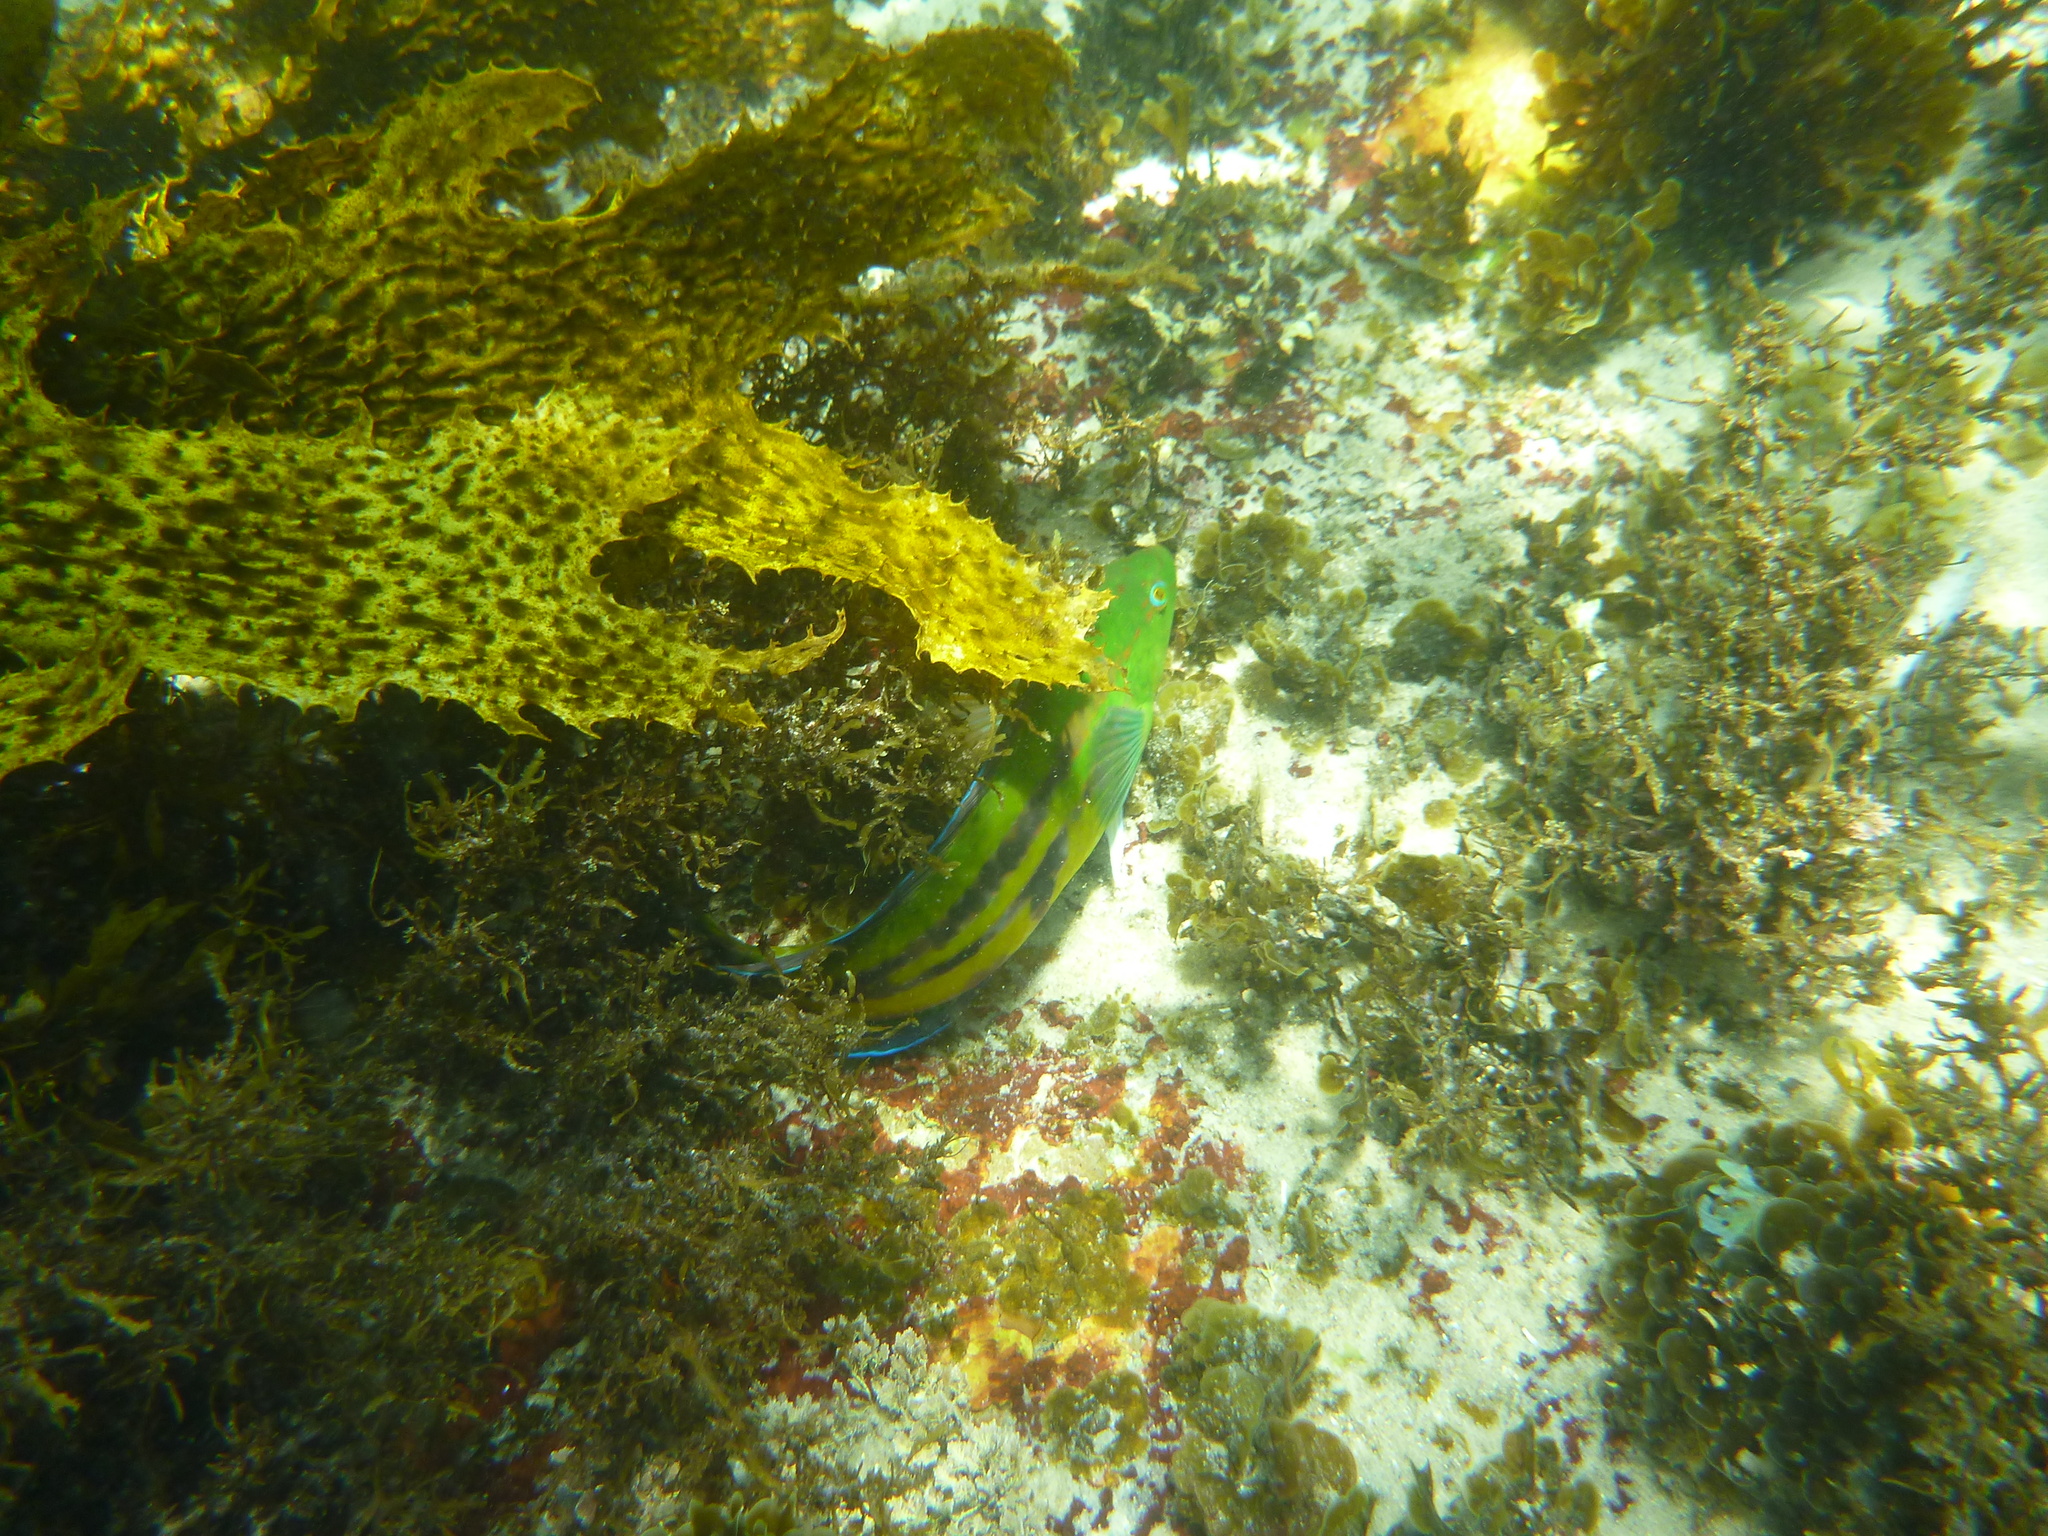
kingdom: Animalia
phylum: Chordata
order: Perciformes
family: Labridae
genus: Pictilabrus
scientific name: Pictilabrus laticlavius
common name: Patrician wrasse
